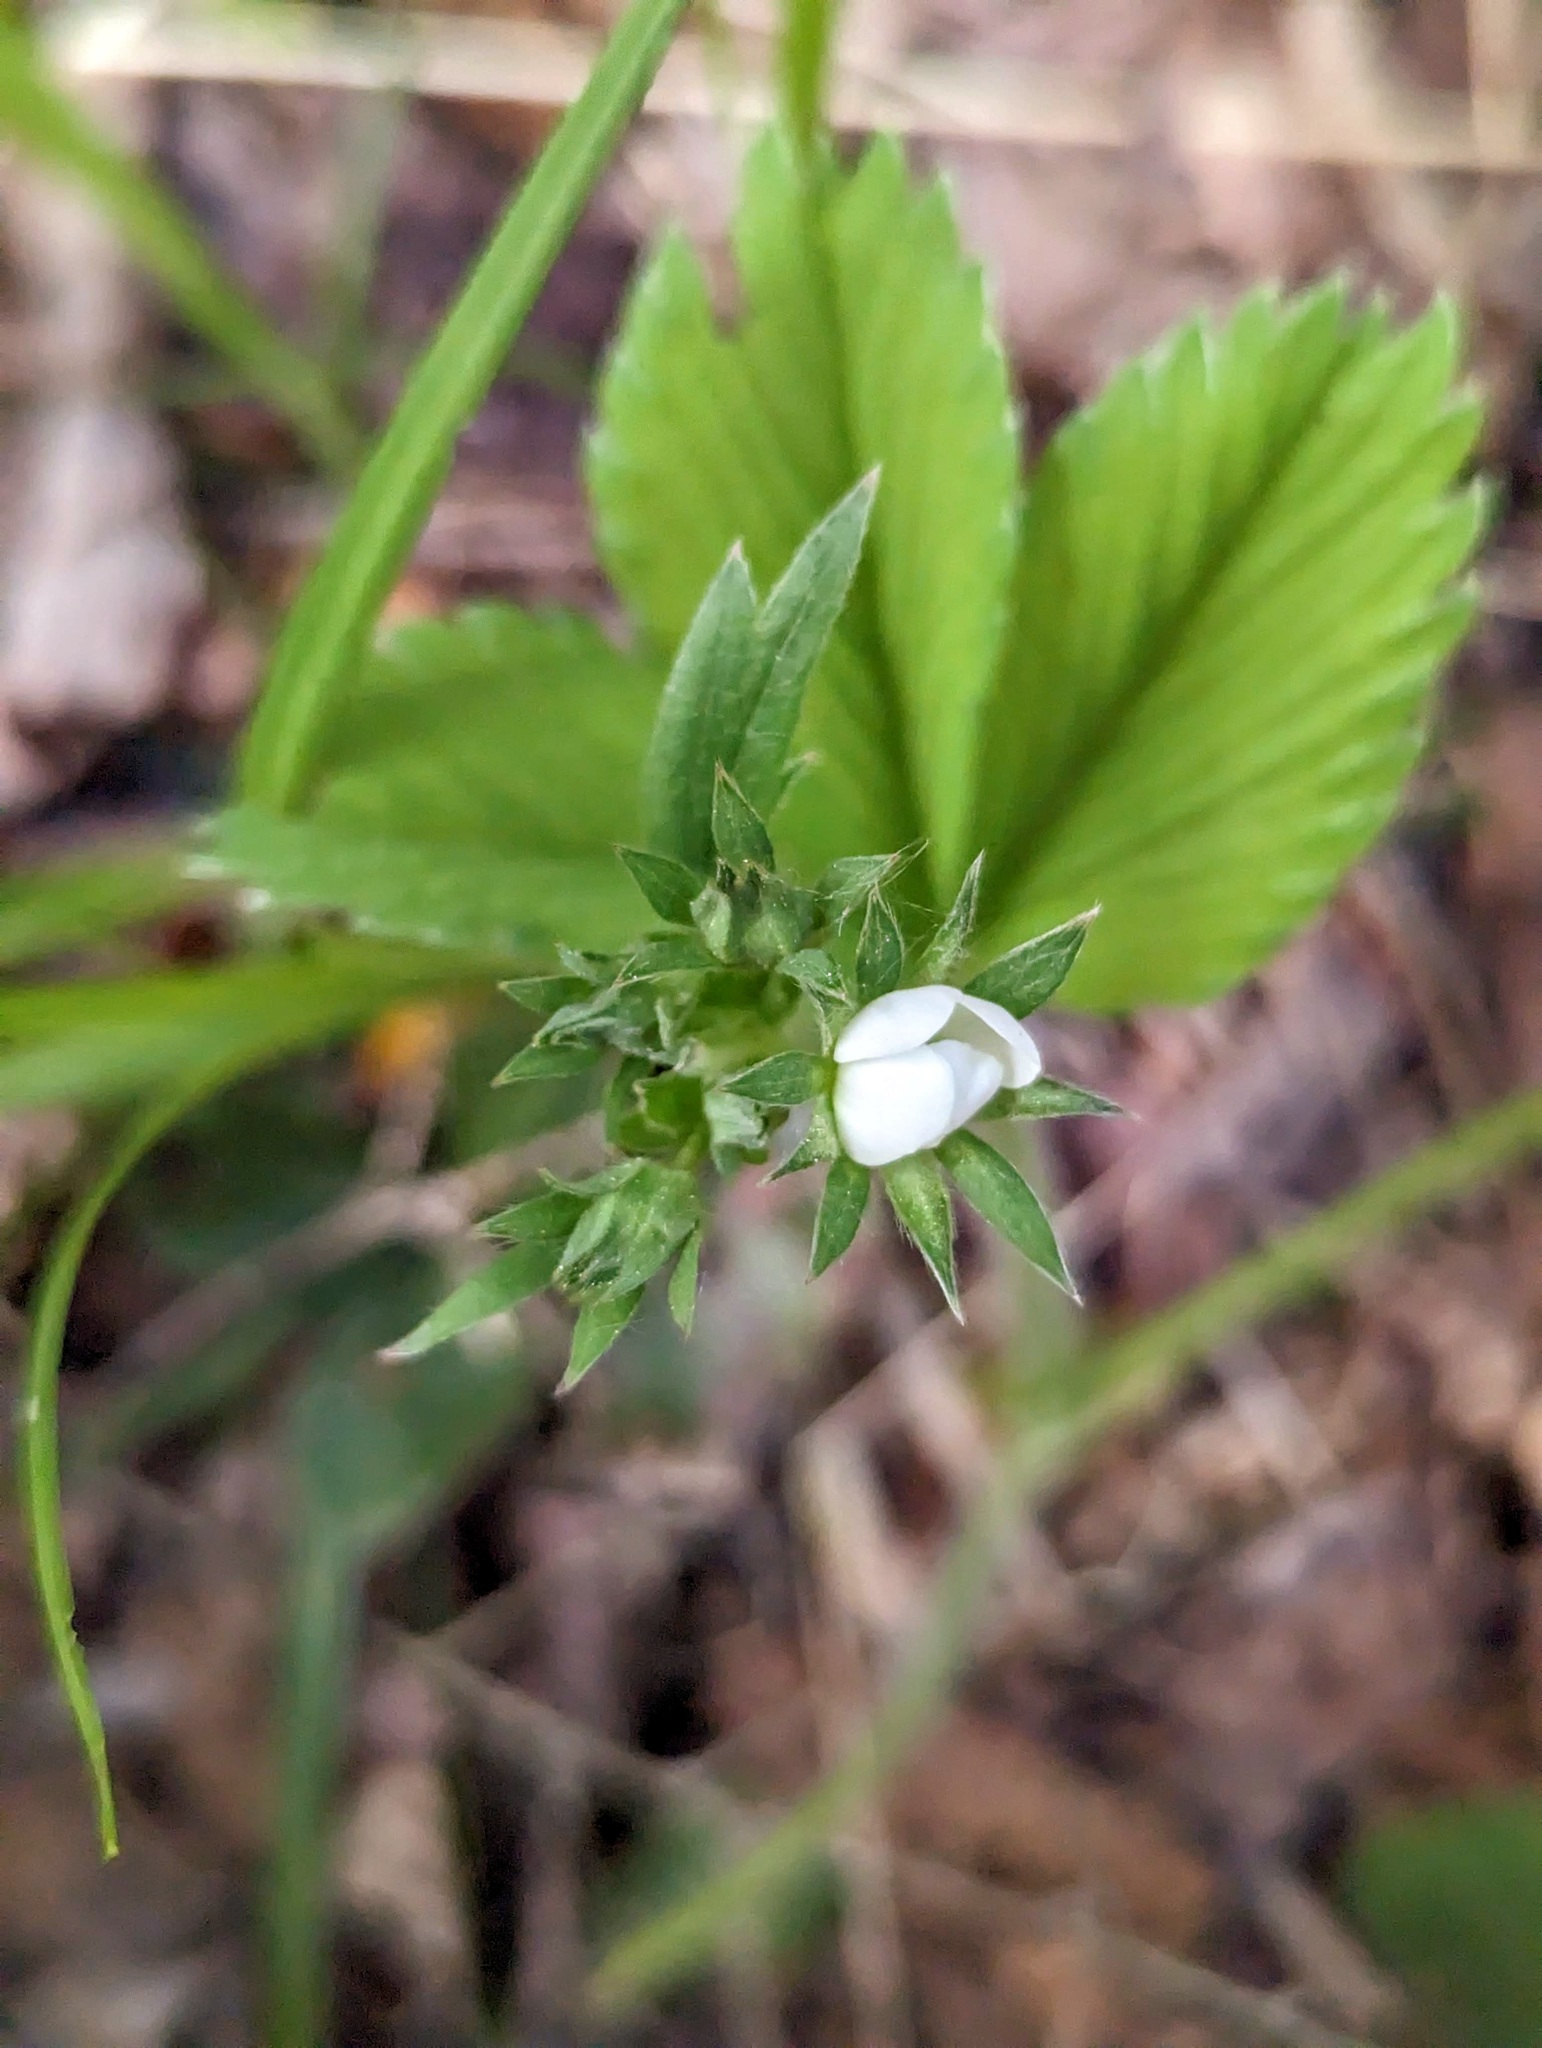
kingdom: Plantae
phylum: Tracheophyta
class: Magnoliopsida
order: Rosales
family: Rosaceae
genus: Fragaria
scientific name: Fragaria virginiana
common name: Thickleaved wild strawberry
